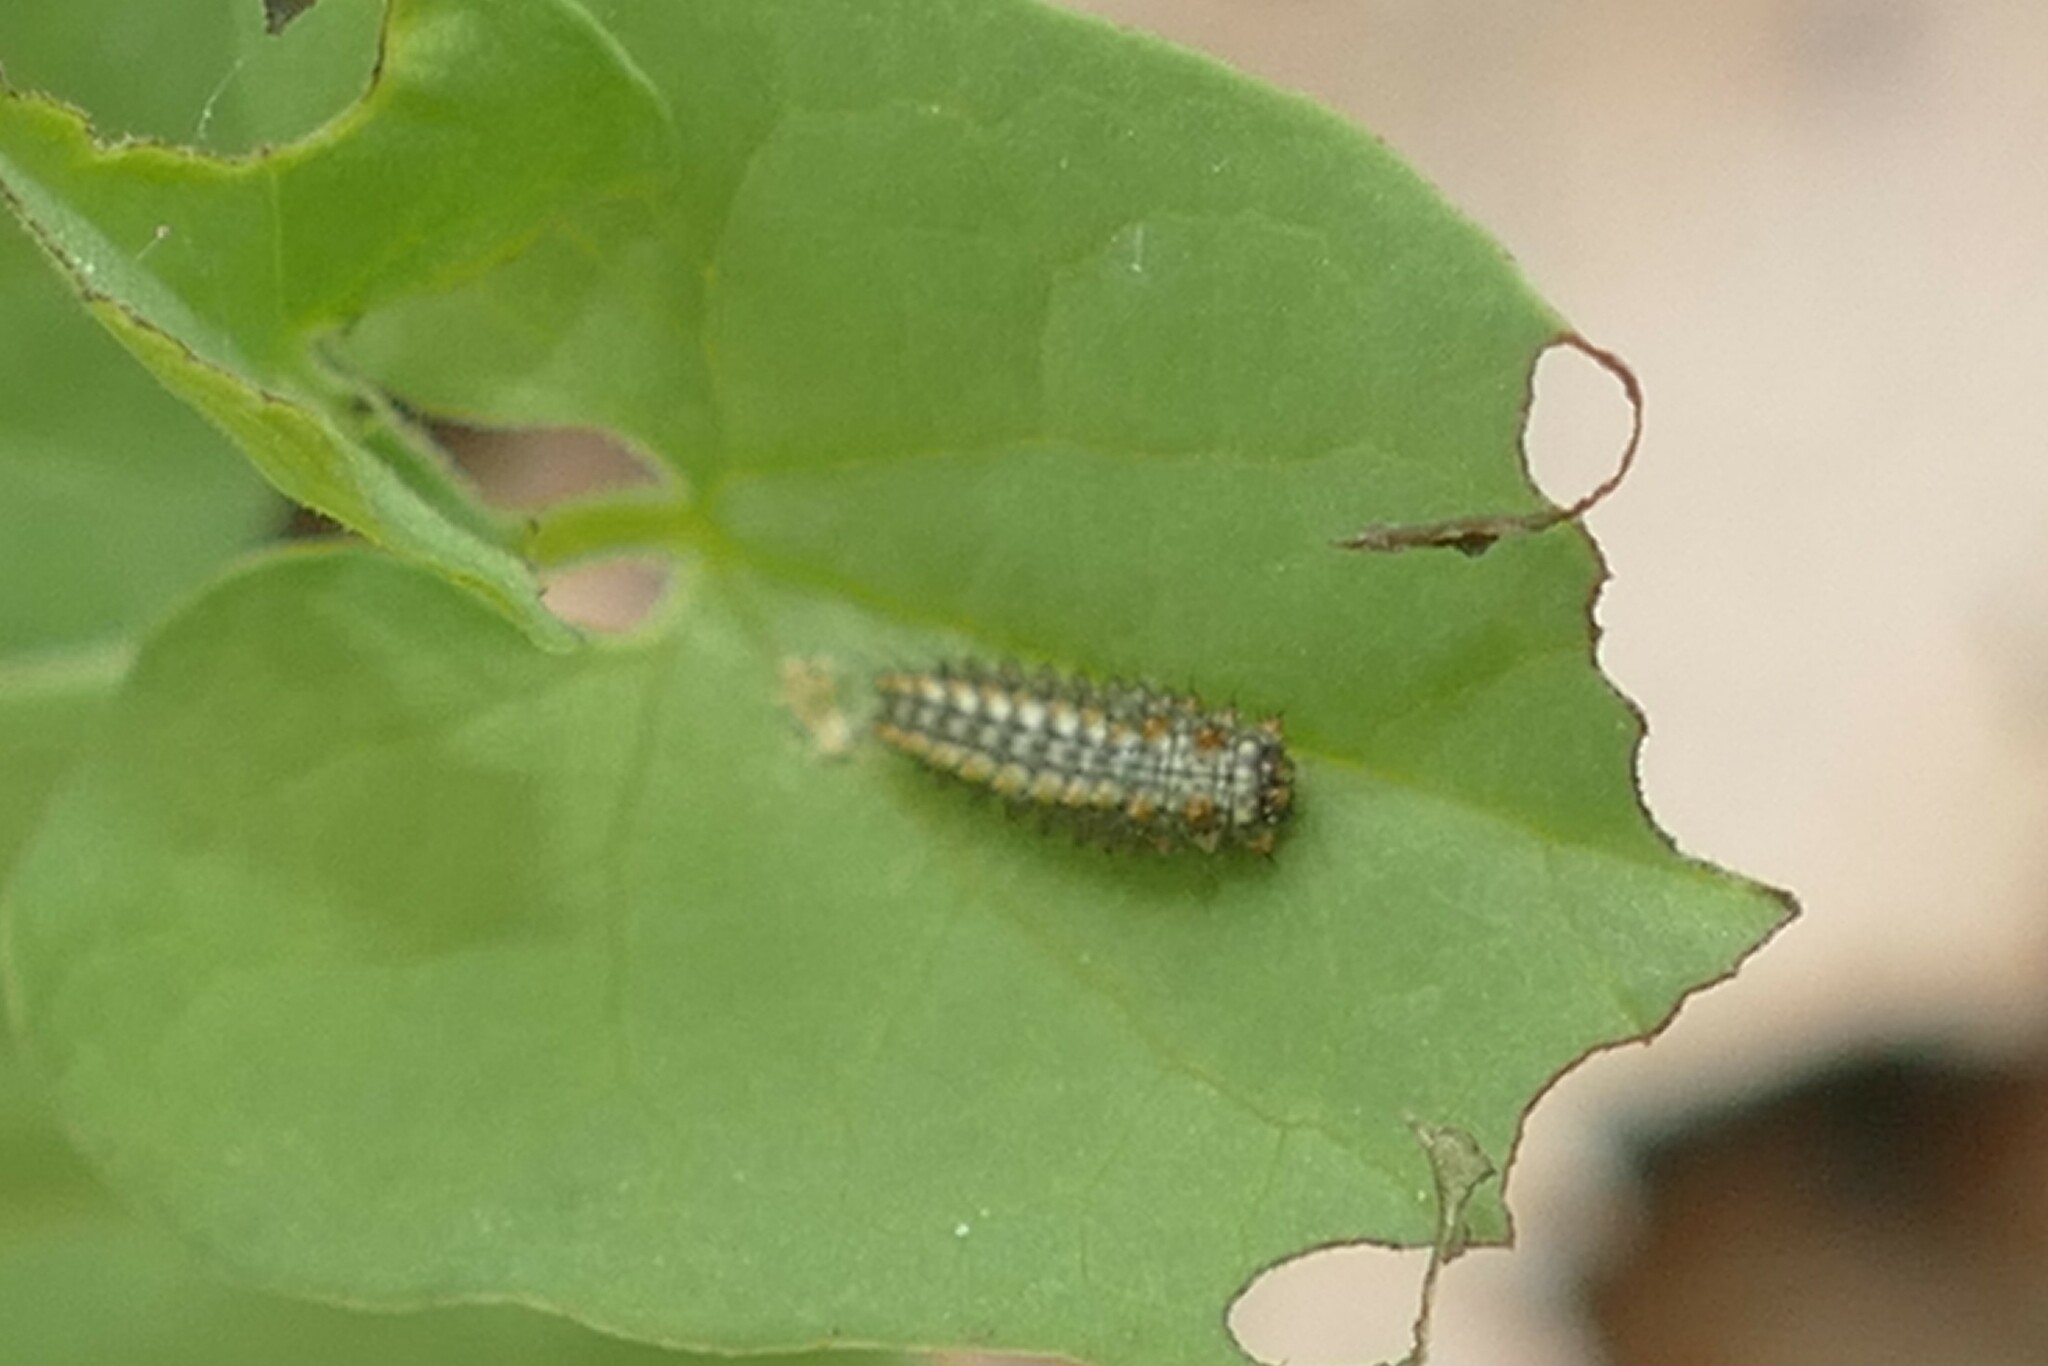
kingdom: Animalia
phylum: Arthropoda
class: Insecta
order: Lepidoptera
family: Papilionidae
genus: Zerynthia
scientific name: Zerynthia rumina
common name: Spanish festoon
